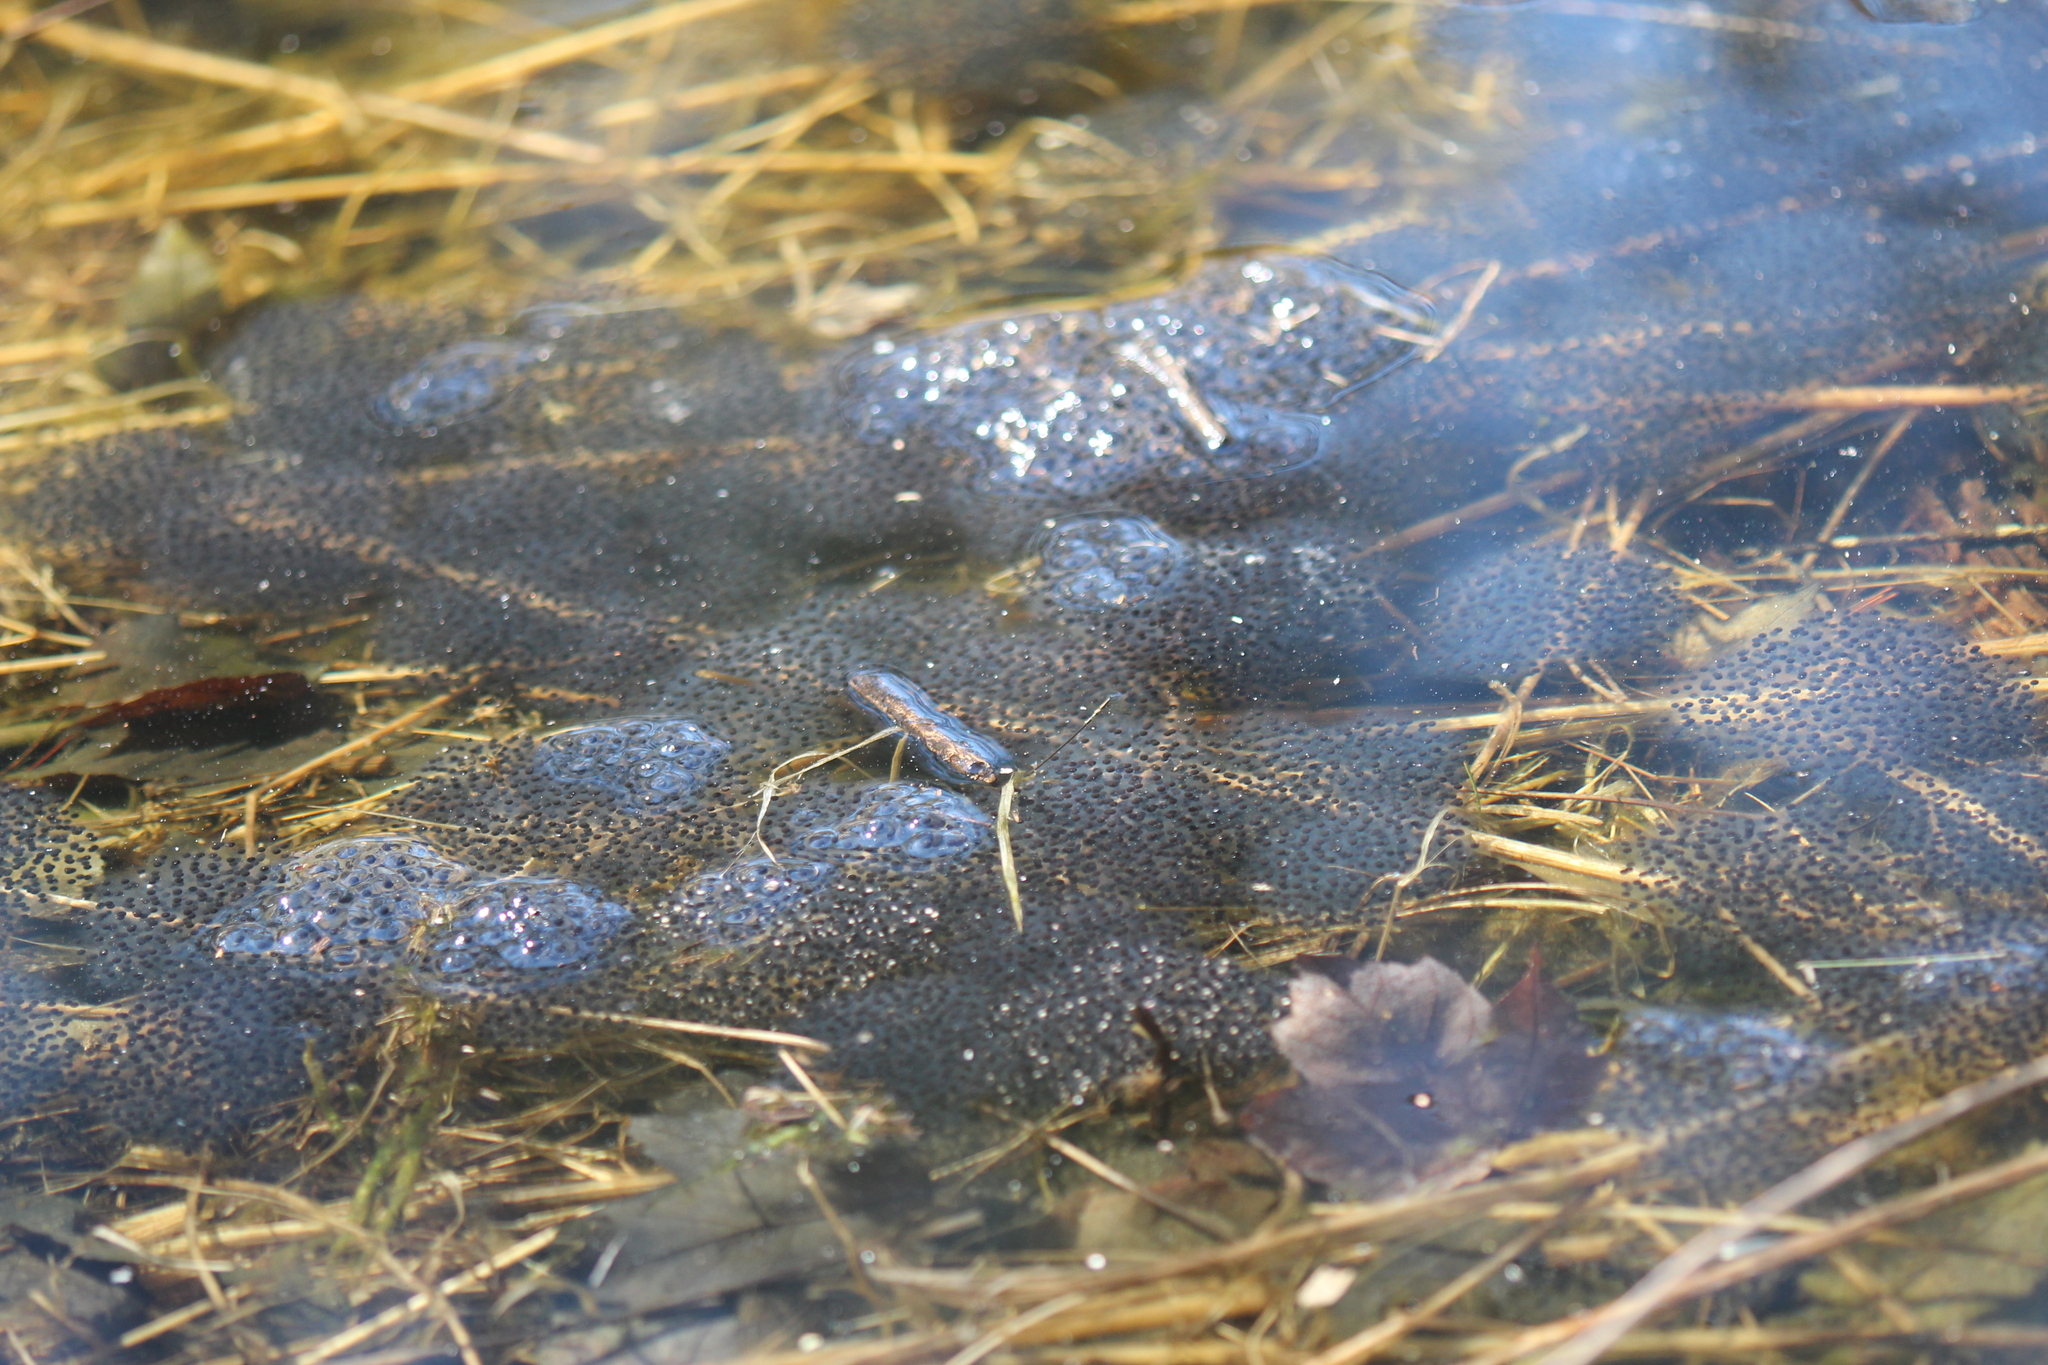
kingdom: Animalia
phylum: Chordata
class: Amphibia
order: Anura
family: Ranidae
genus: Lithobates
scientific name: Lithobates sylvaticus
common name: Wood frog
